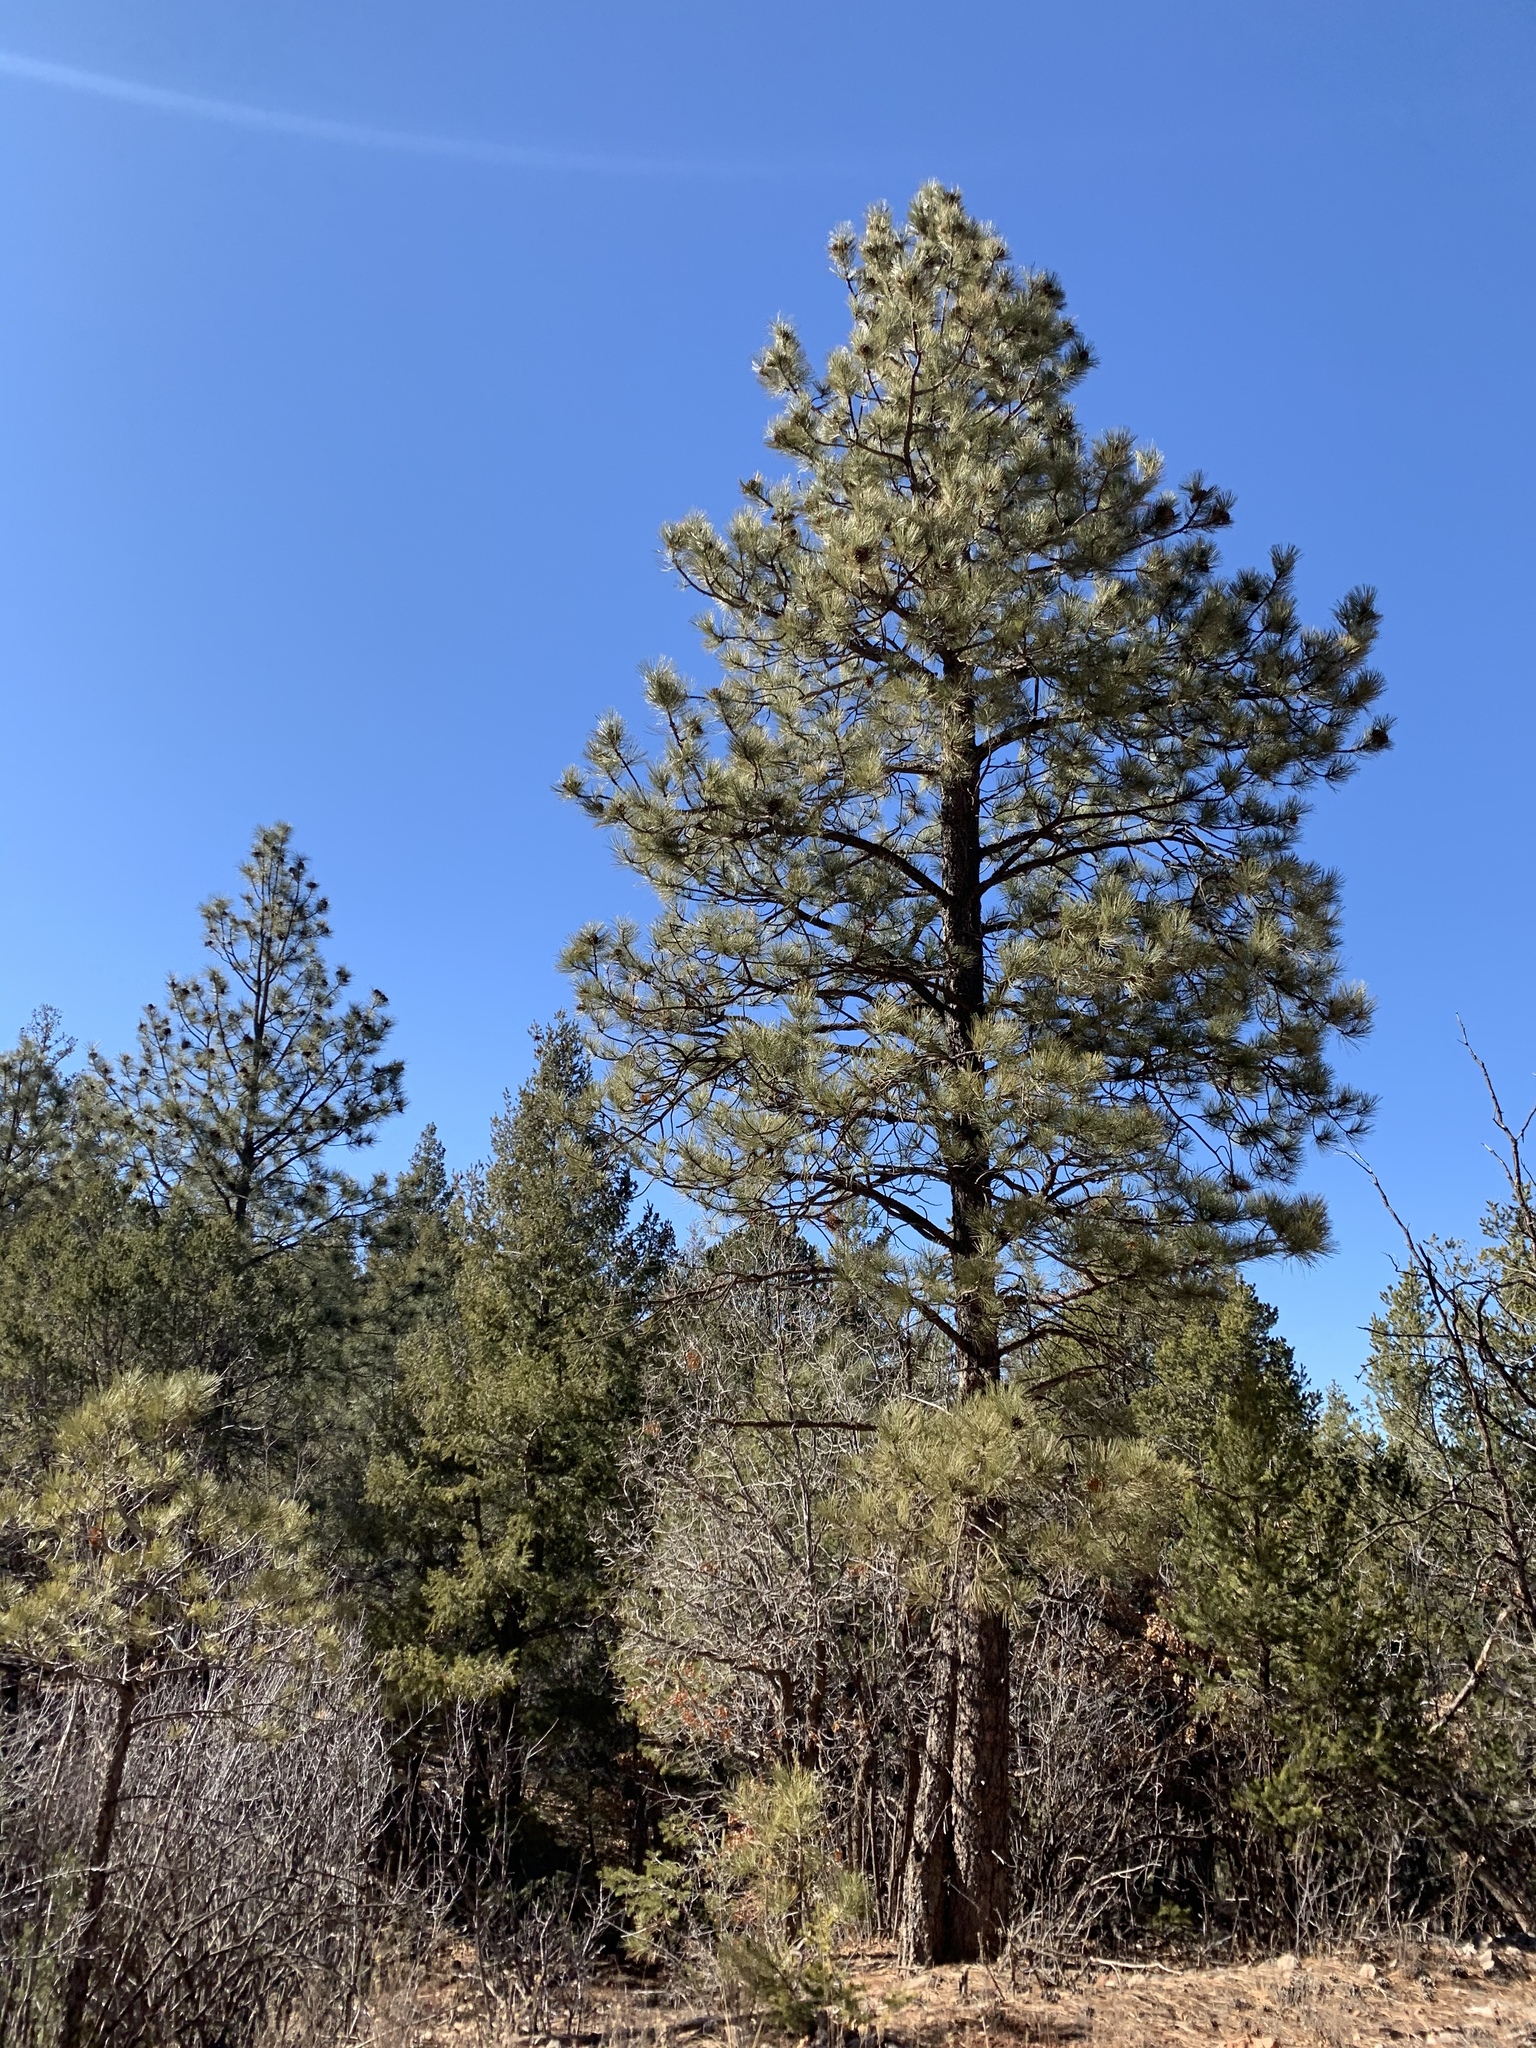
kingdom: Plantae
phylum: Tracheophyta
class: Pinopsida
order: Pinales
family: Pinaceae
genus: Pinus
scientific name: Pinus ponderosa
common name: Western yellow-pine
